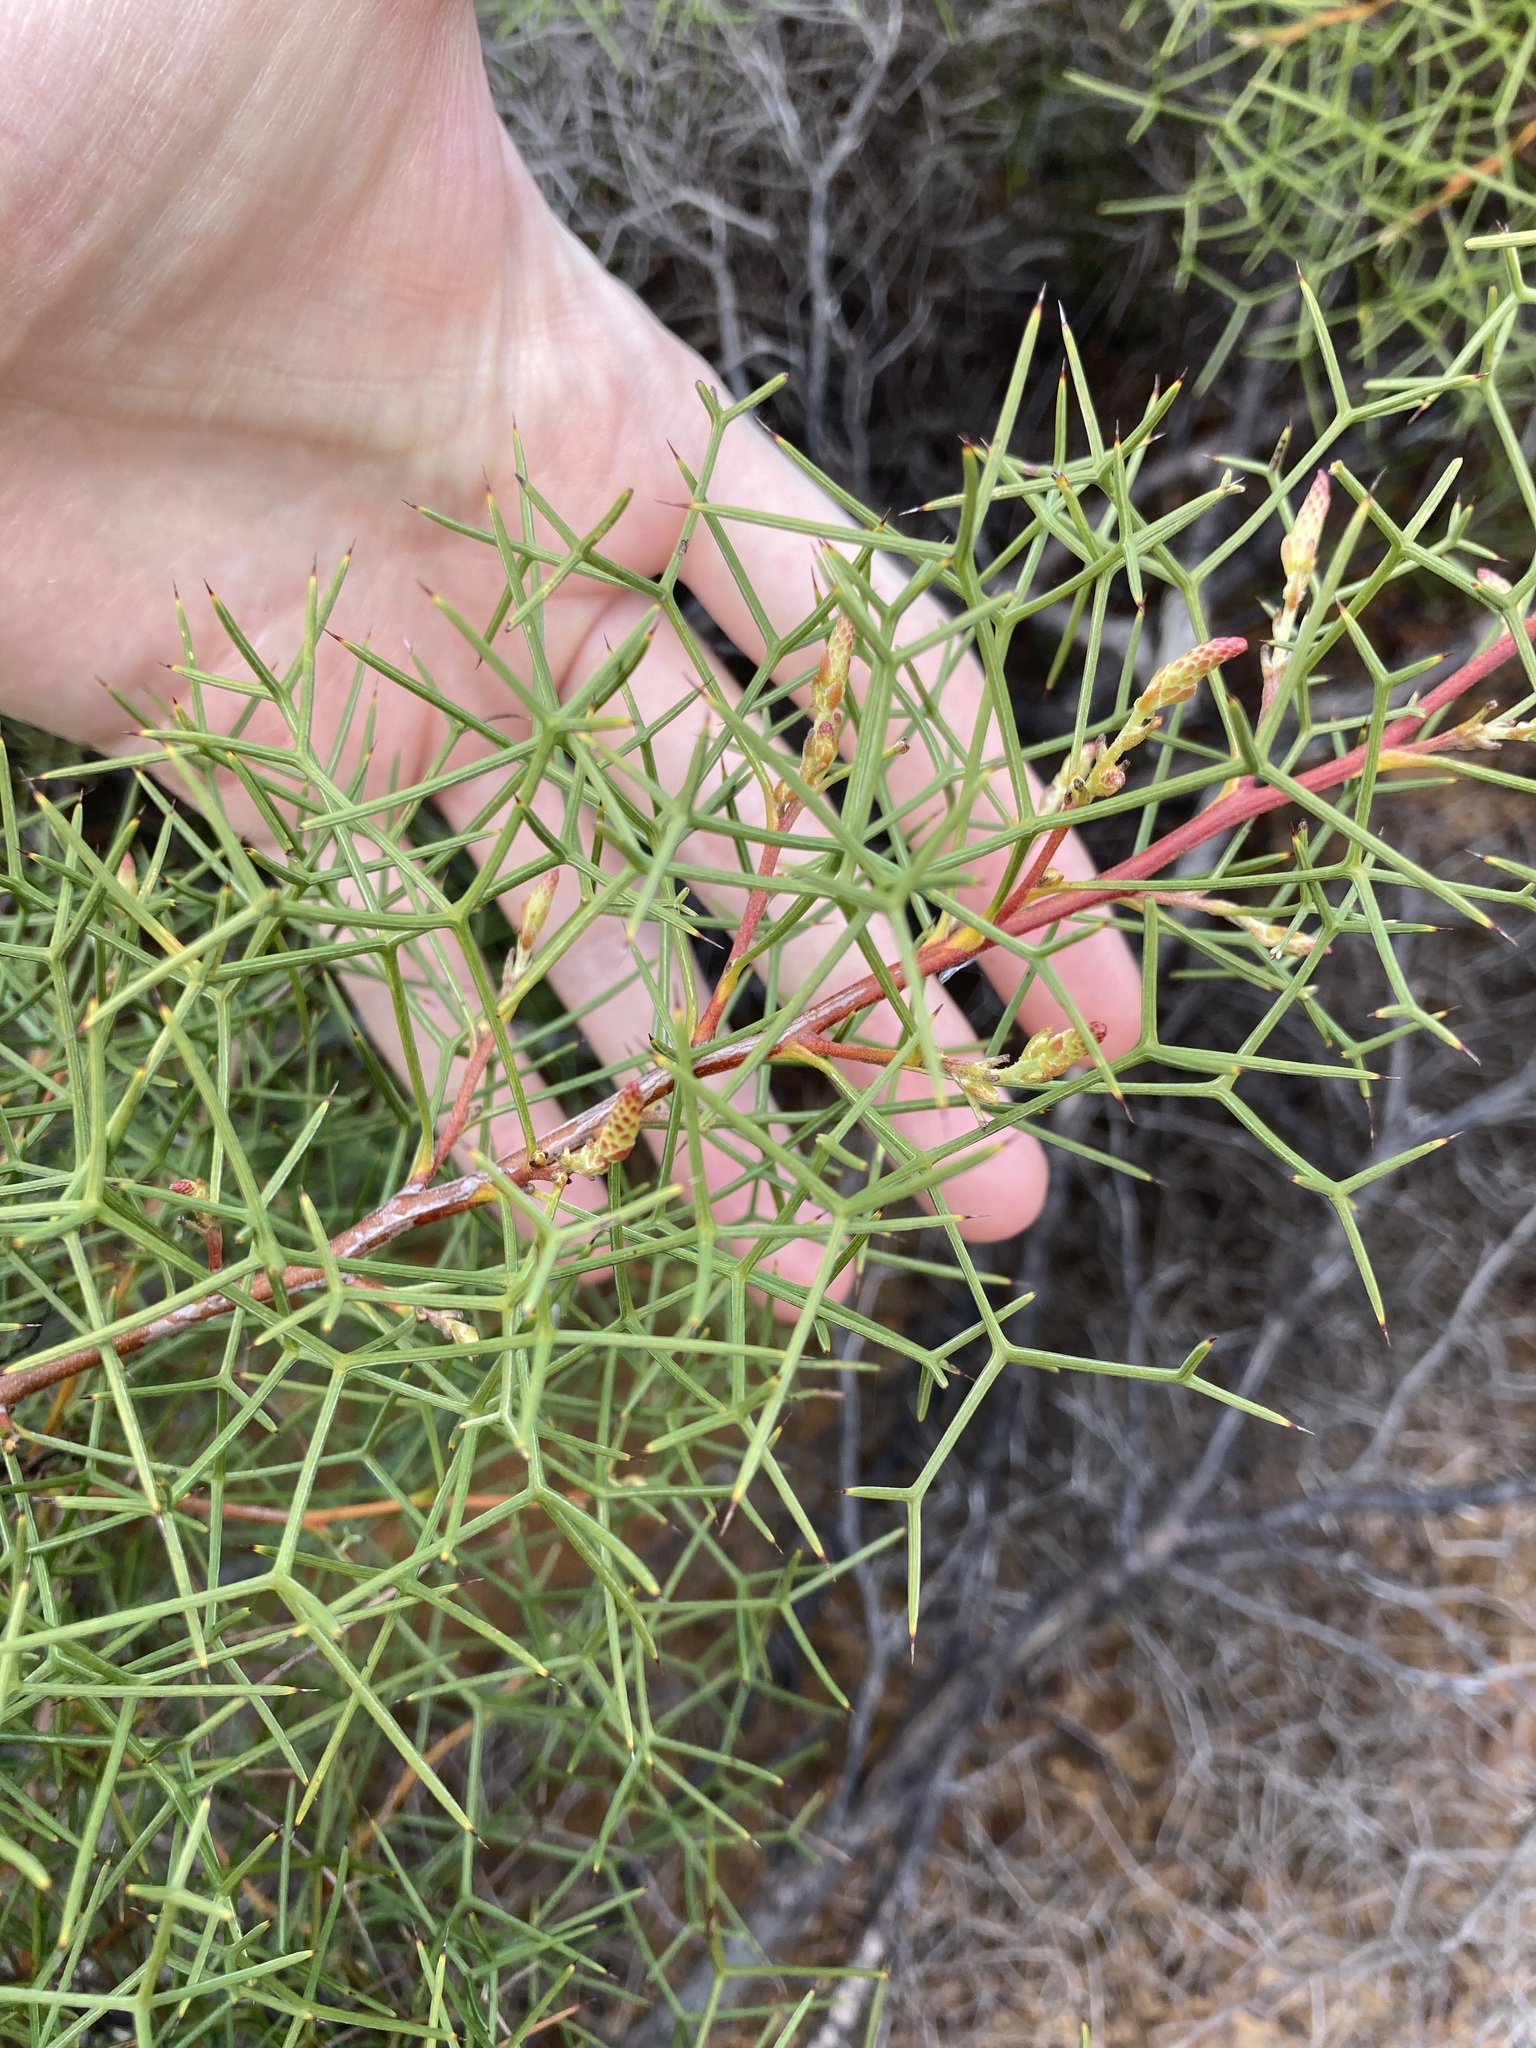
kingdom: Plantae
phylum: Tracheophyta
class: Magnoliopsida
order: Proteales
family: Proteaceae
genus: Grevillea
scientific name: Grevillea leptopoda
